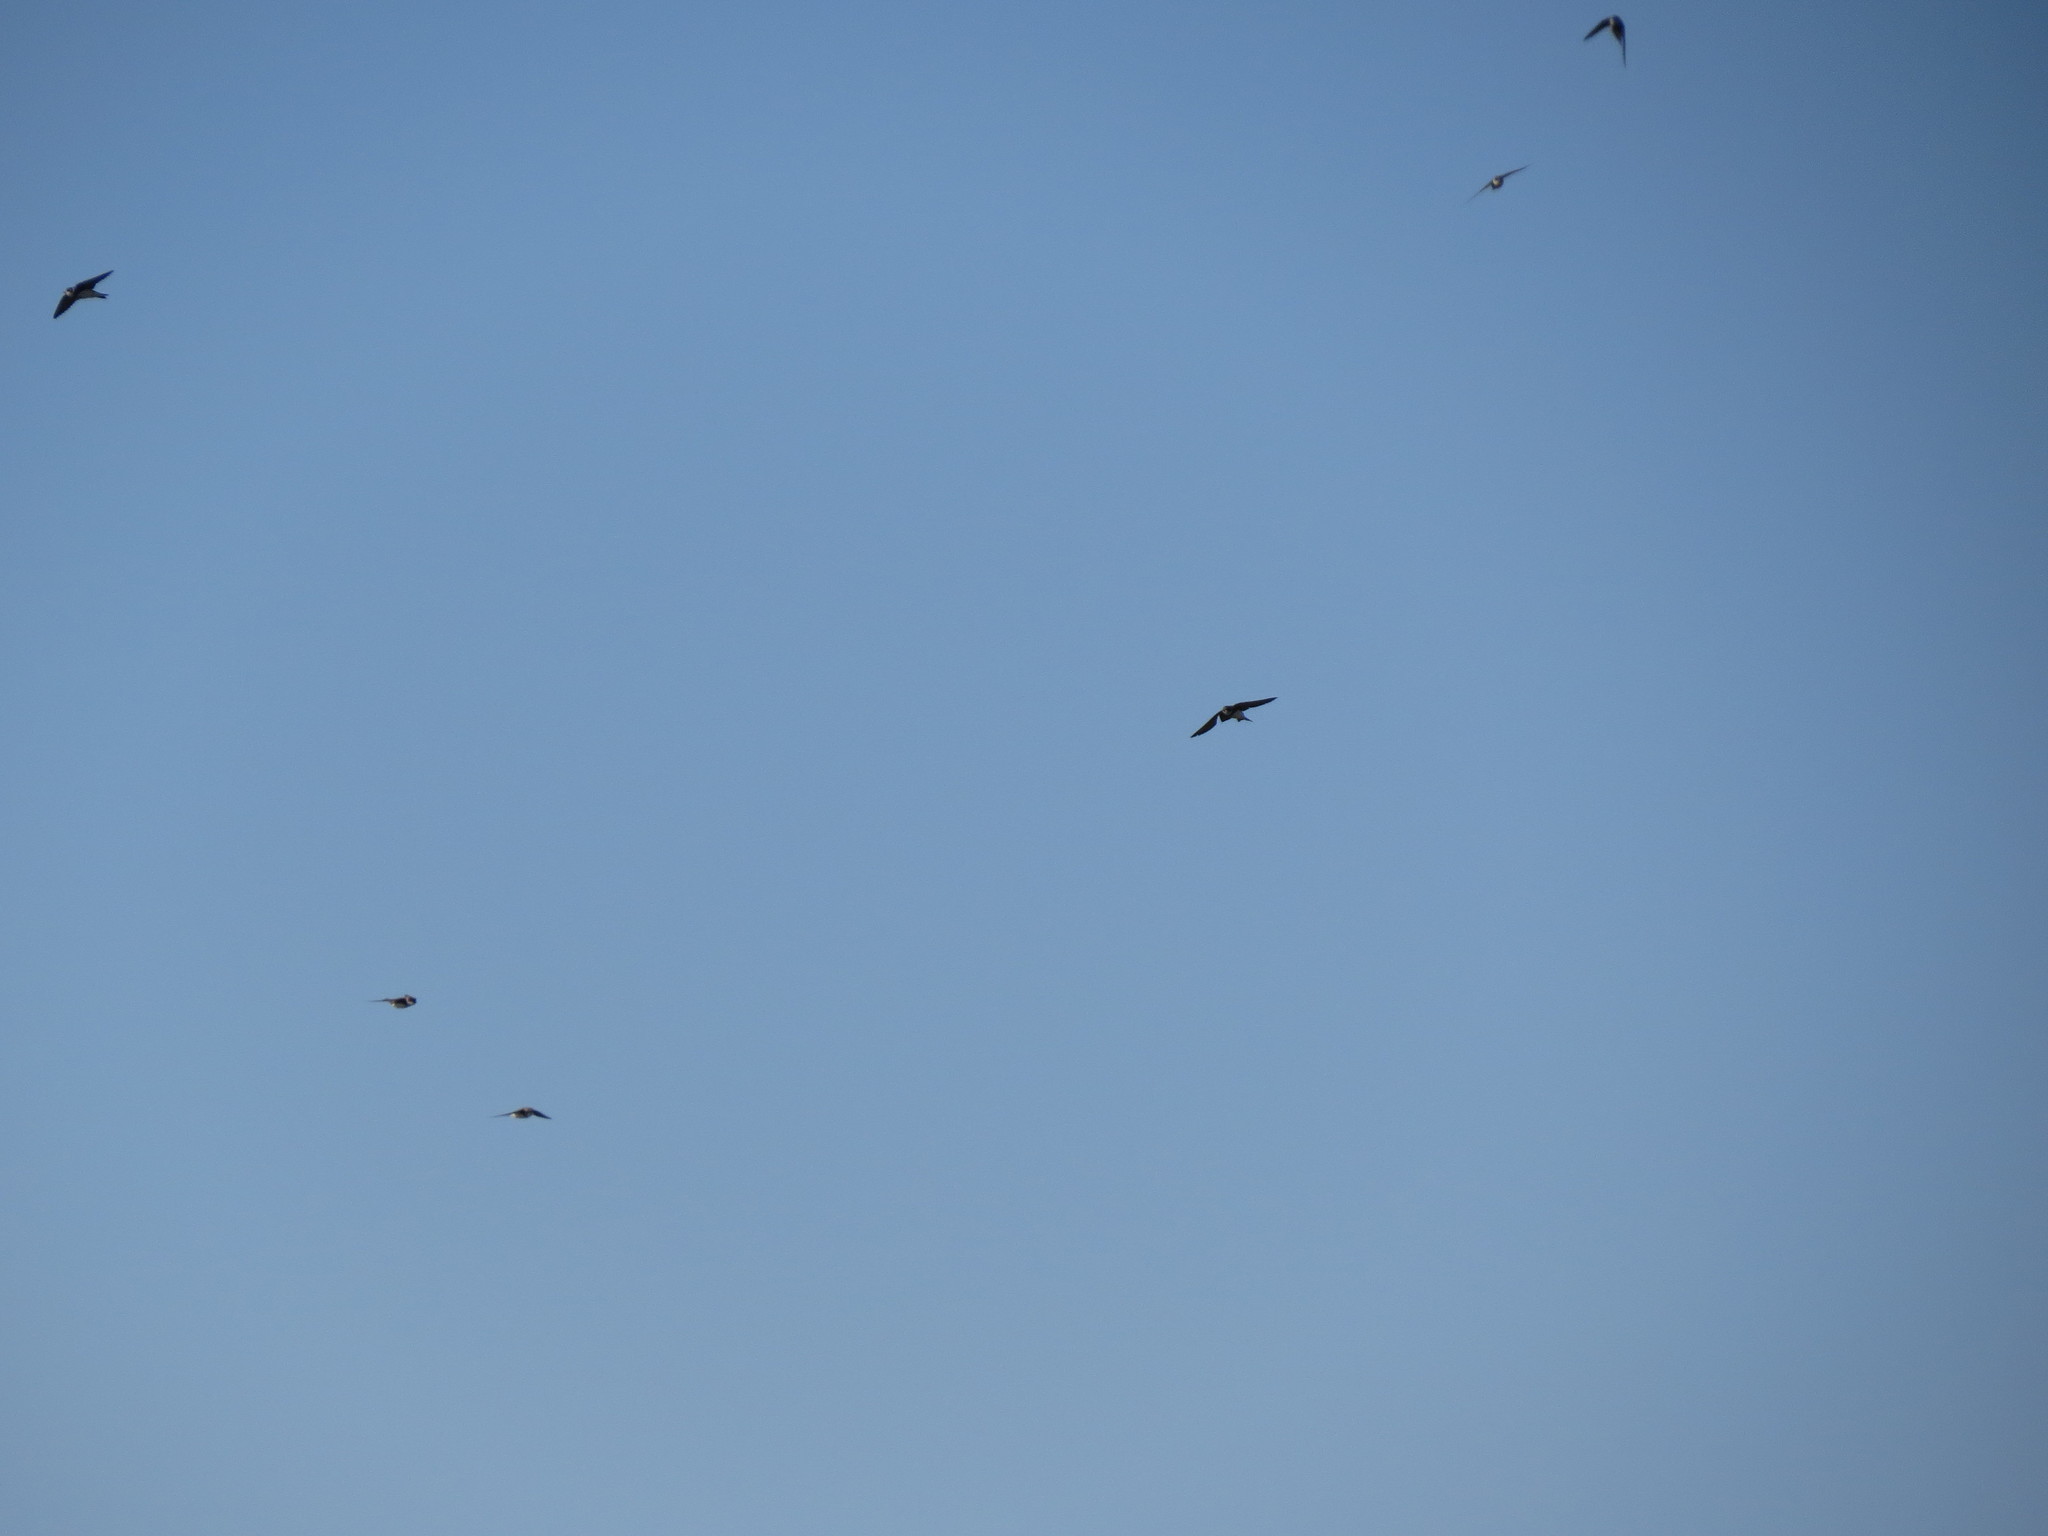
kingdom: Animalia
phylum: Chordata
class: Aves
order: Passeriformes
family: Hirundinidae
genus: Riparia
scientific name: Riparia riparia
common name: Sand martin
